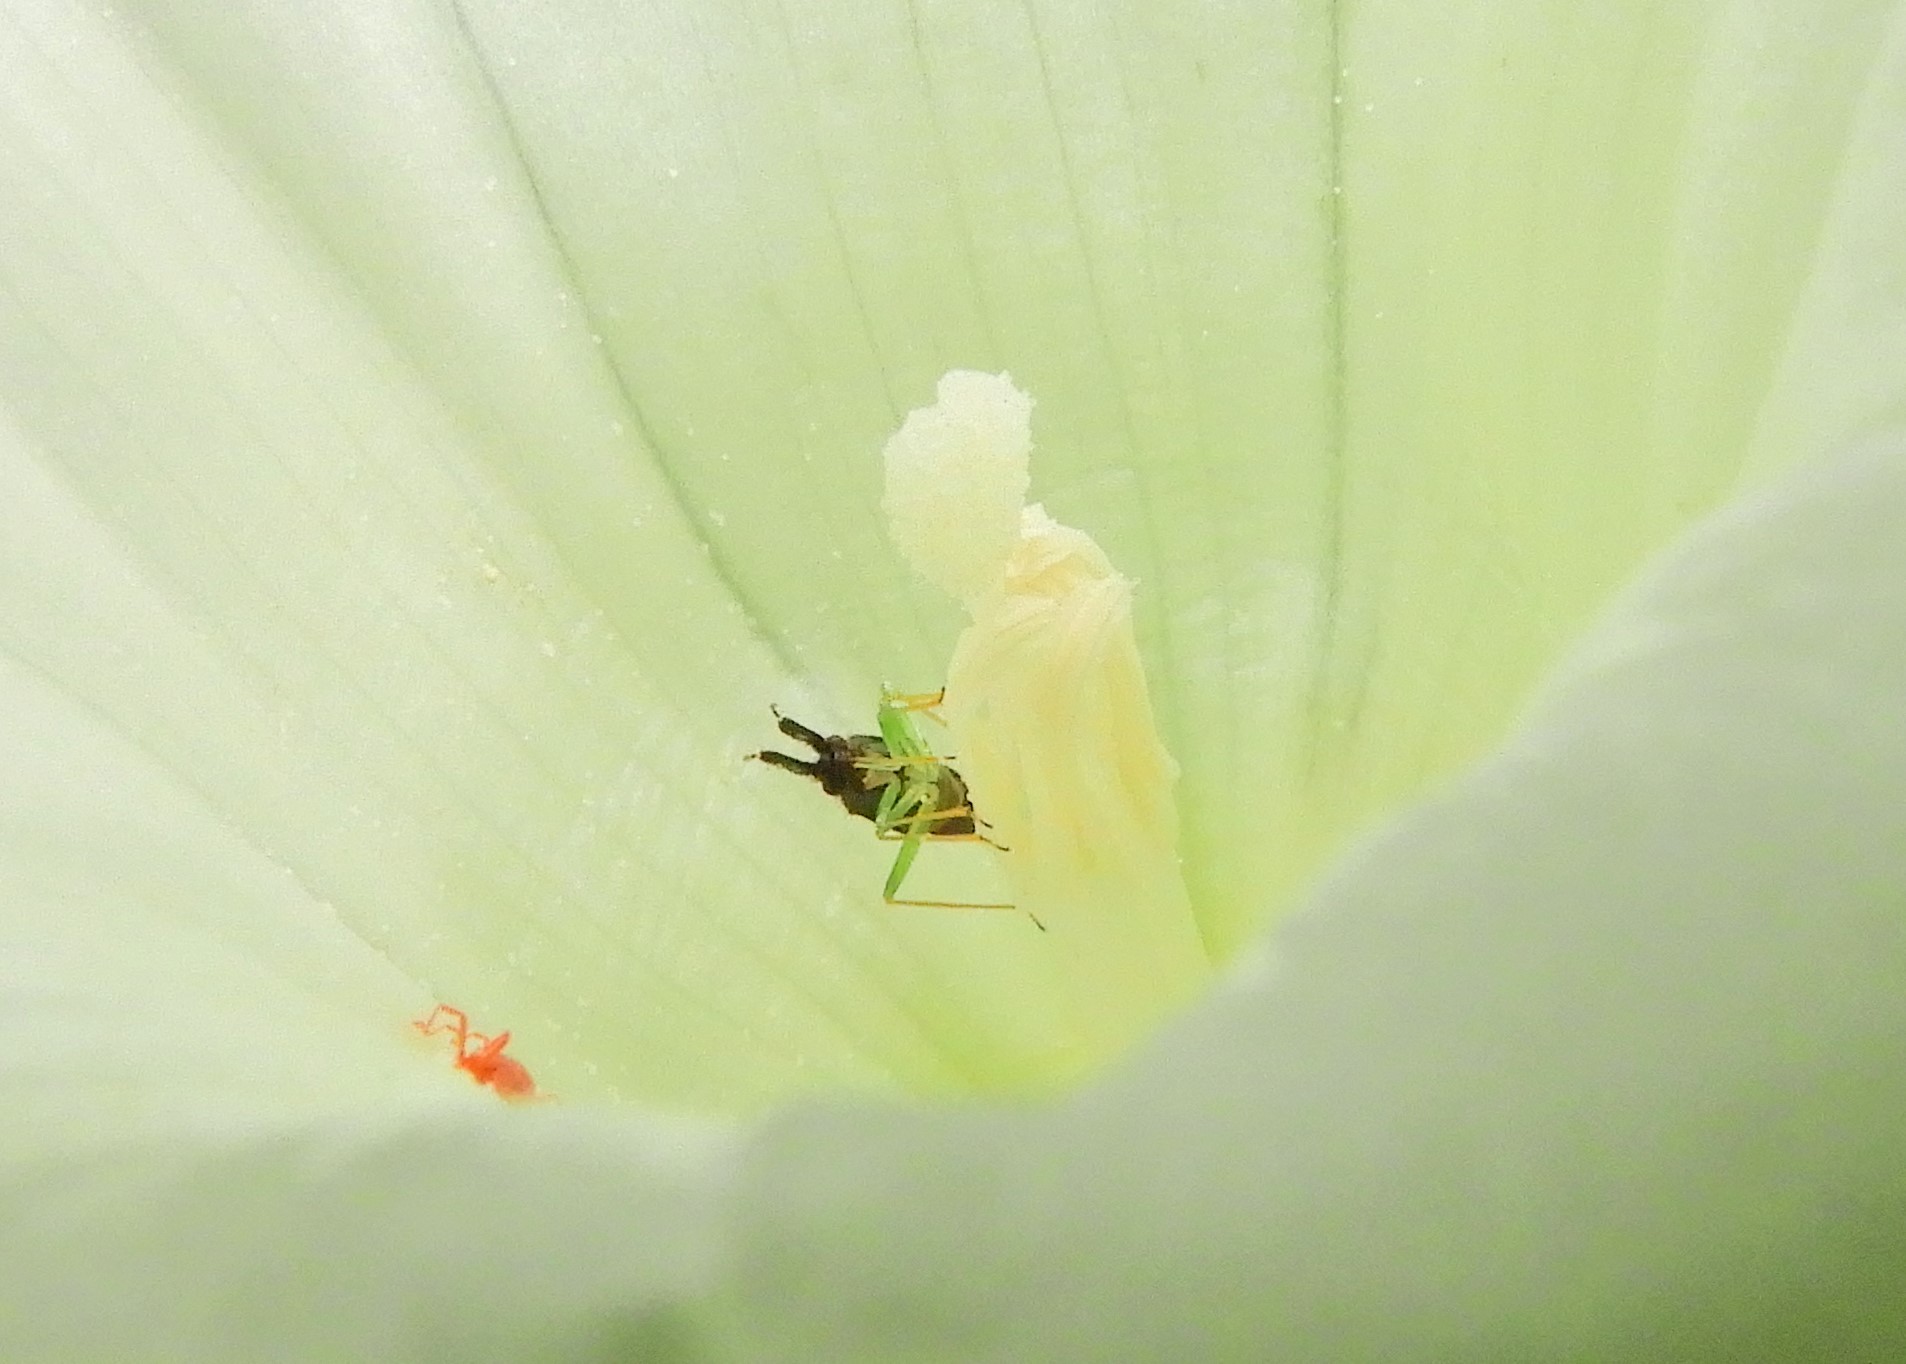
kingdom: Animalia
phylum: Arthropoda
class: Insecta
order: Hemiptera
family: Miridae
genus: Heterotoma
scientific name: Heterotoma planicornis
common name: Plant bug
